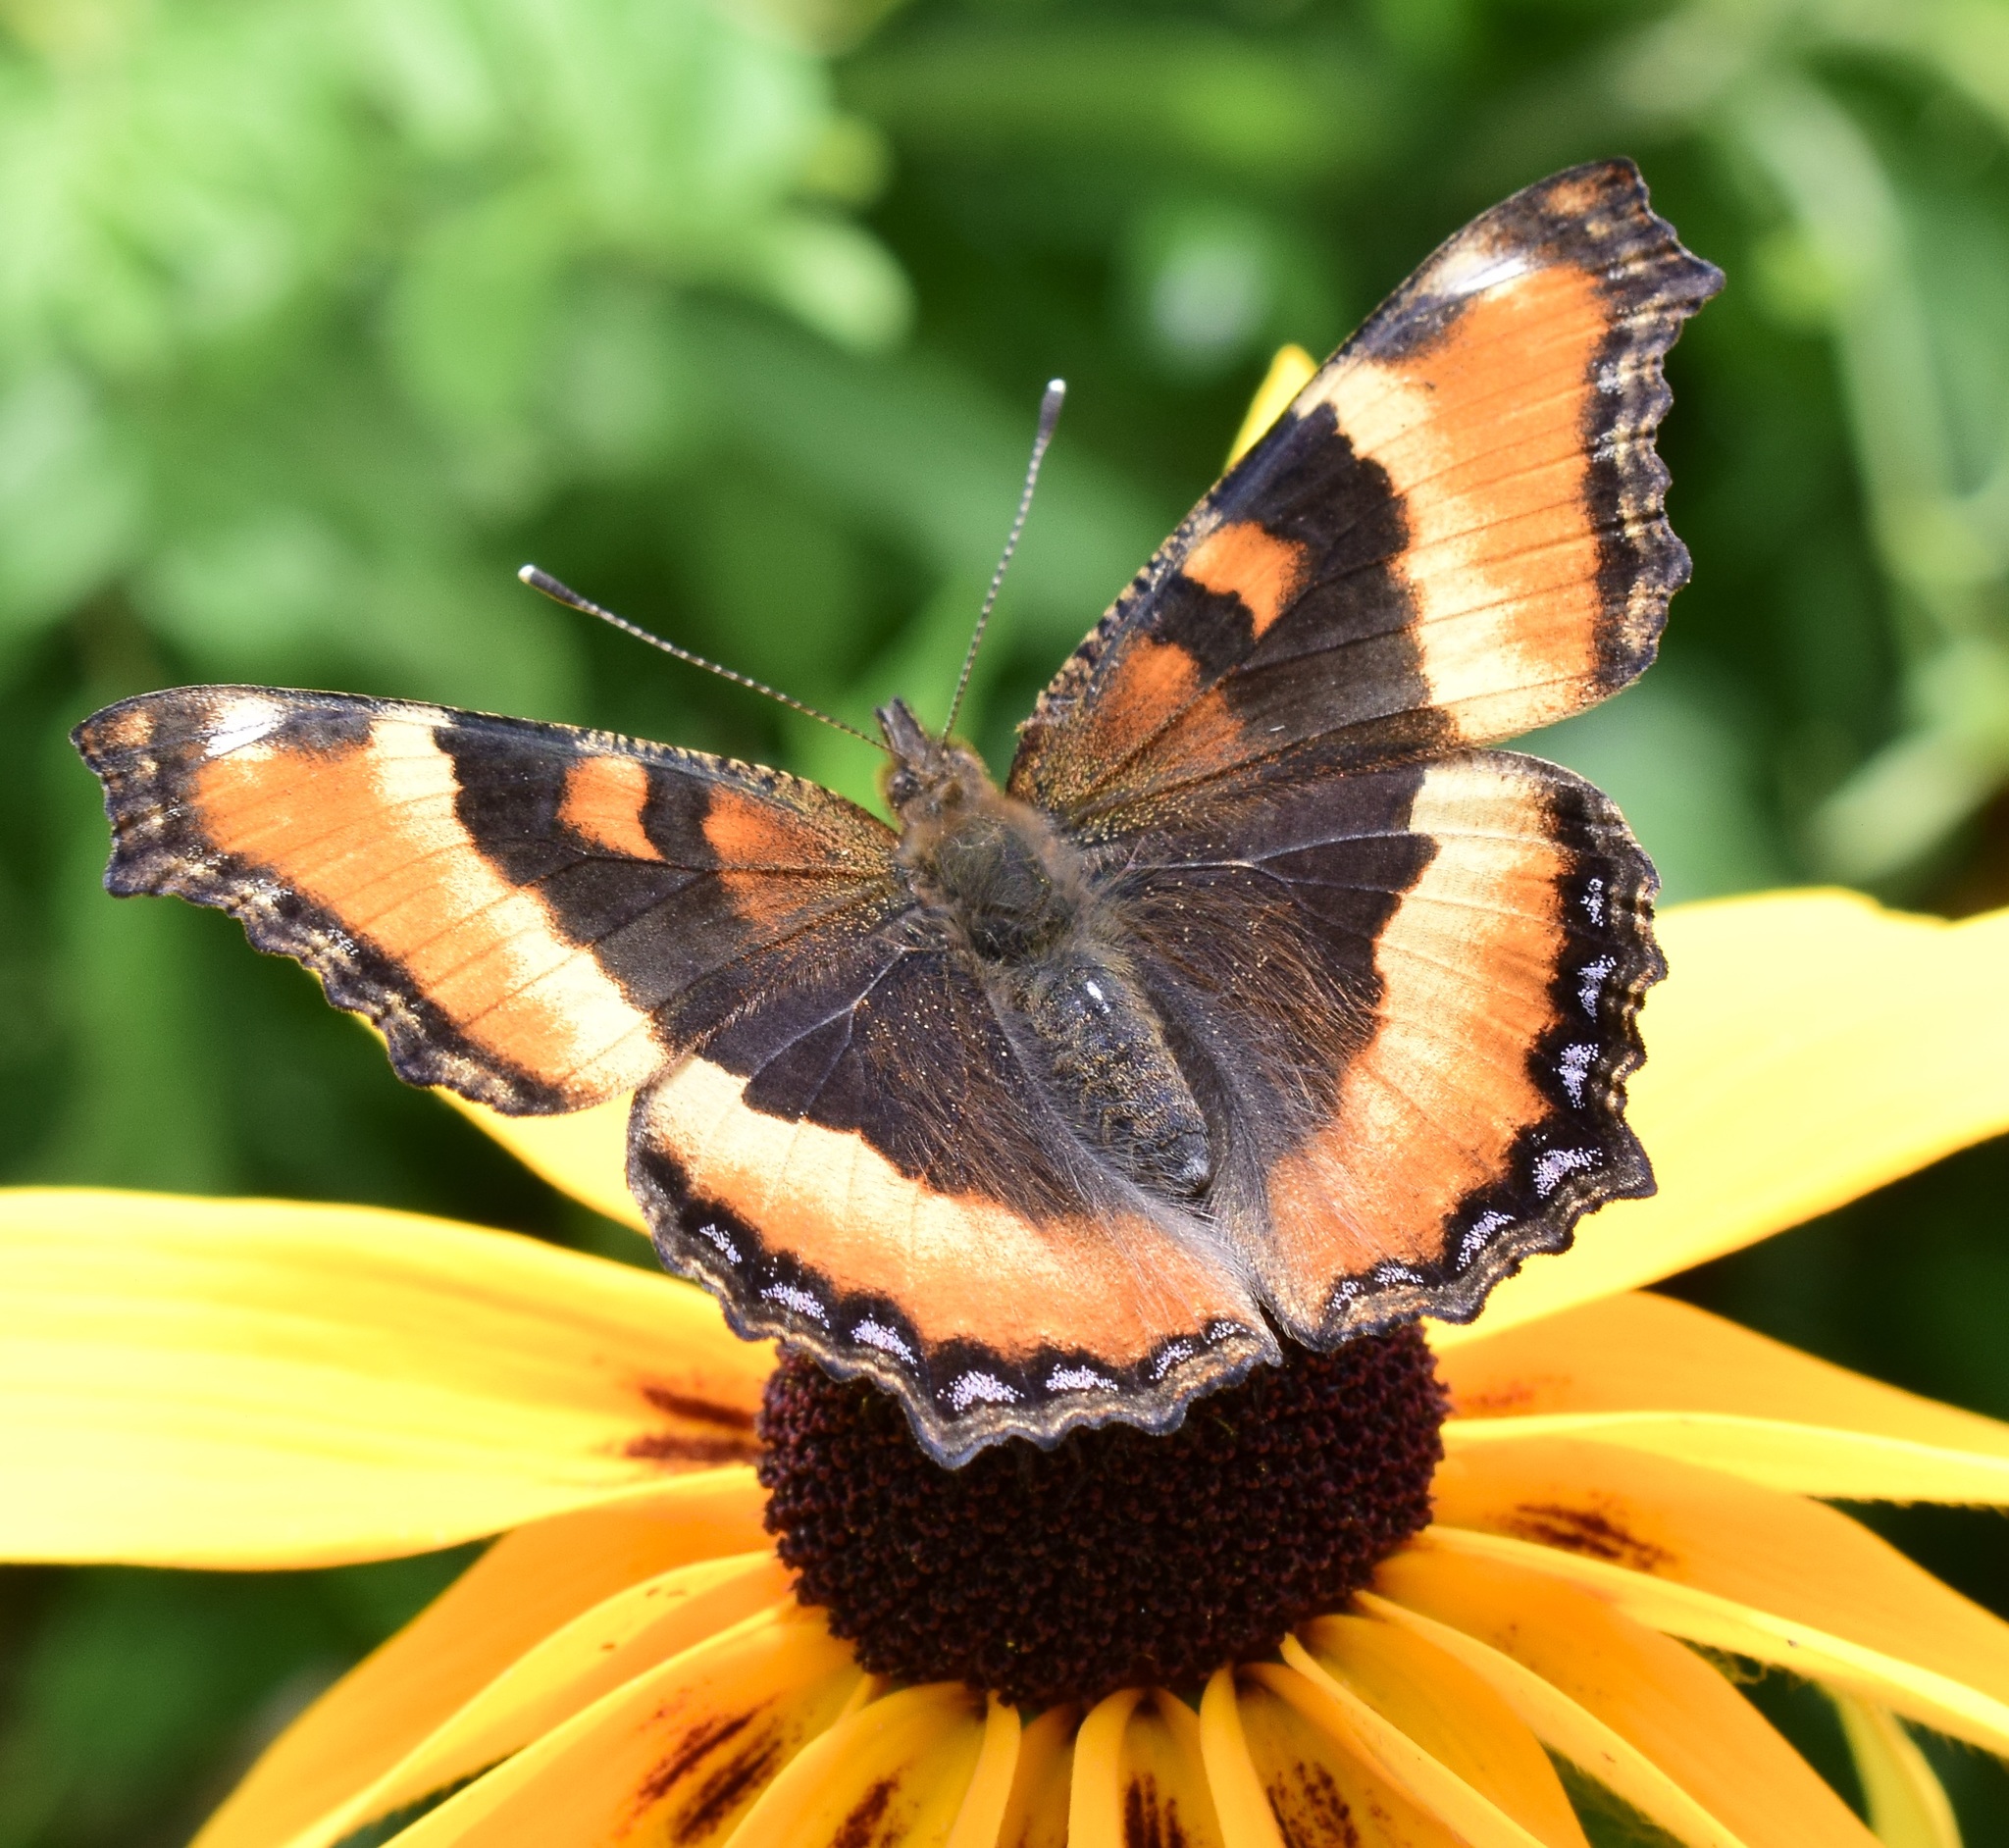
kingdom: Animalia
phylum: Arthropoda
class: Insecta
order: Lepidoptera
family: Nymphalidae
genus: Aglais
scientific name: Aglais milberti
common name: Milbert's tortoiseshell
